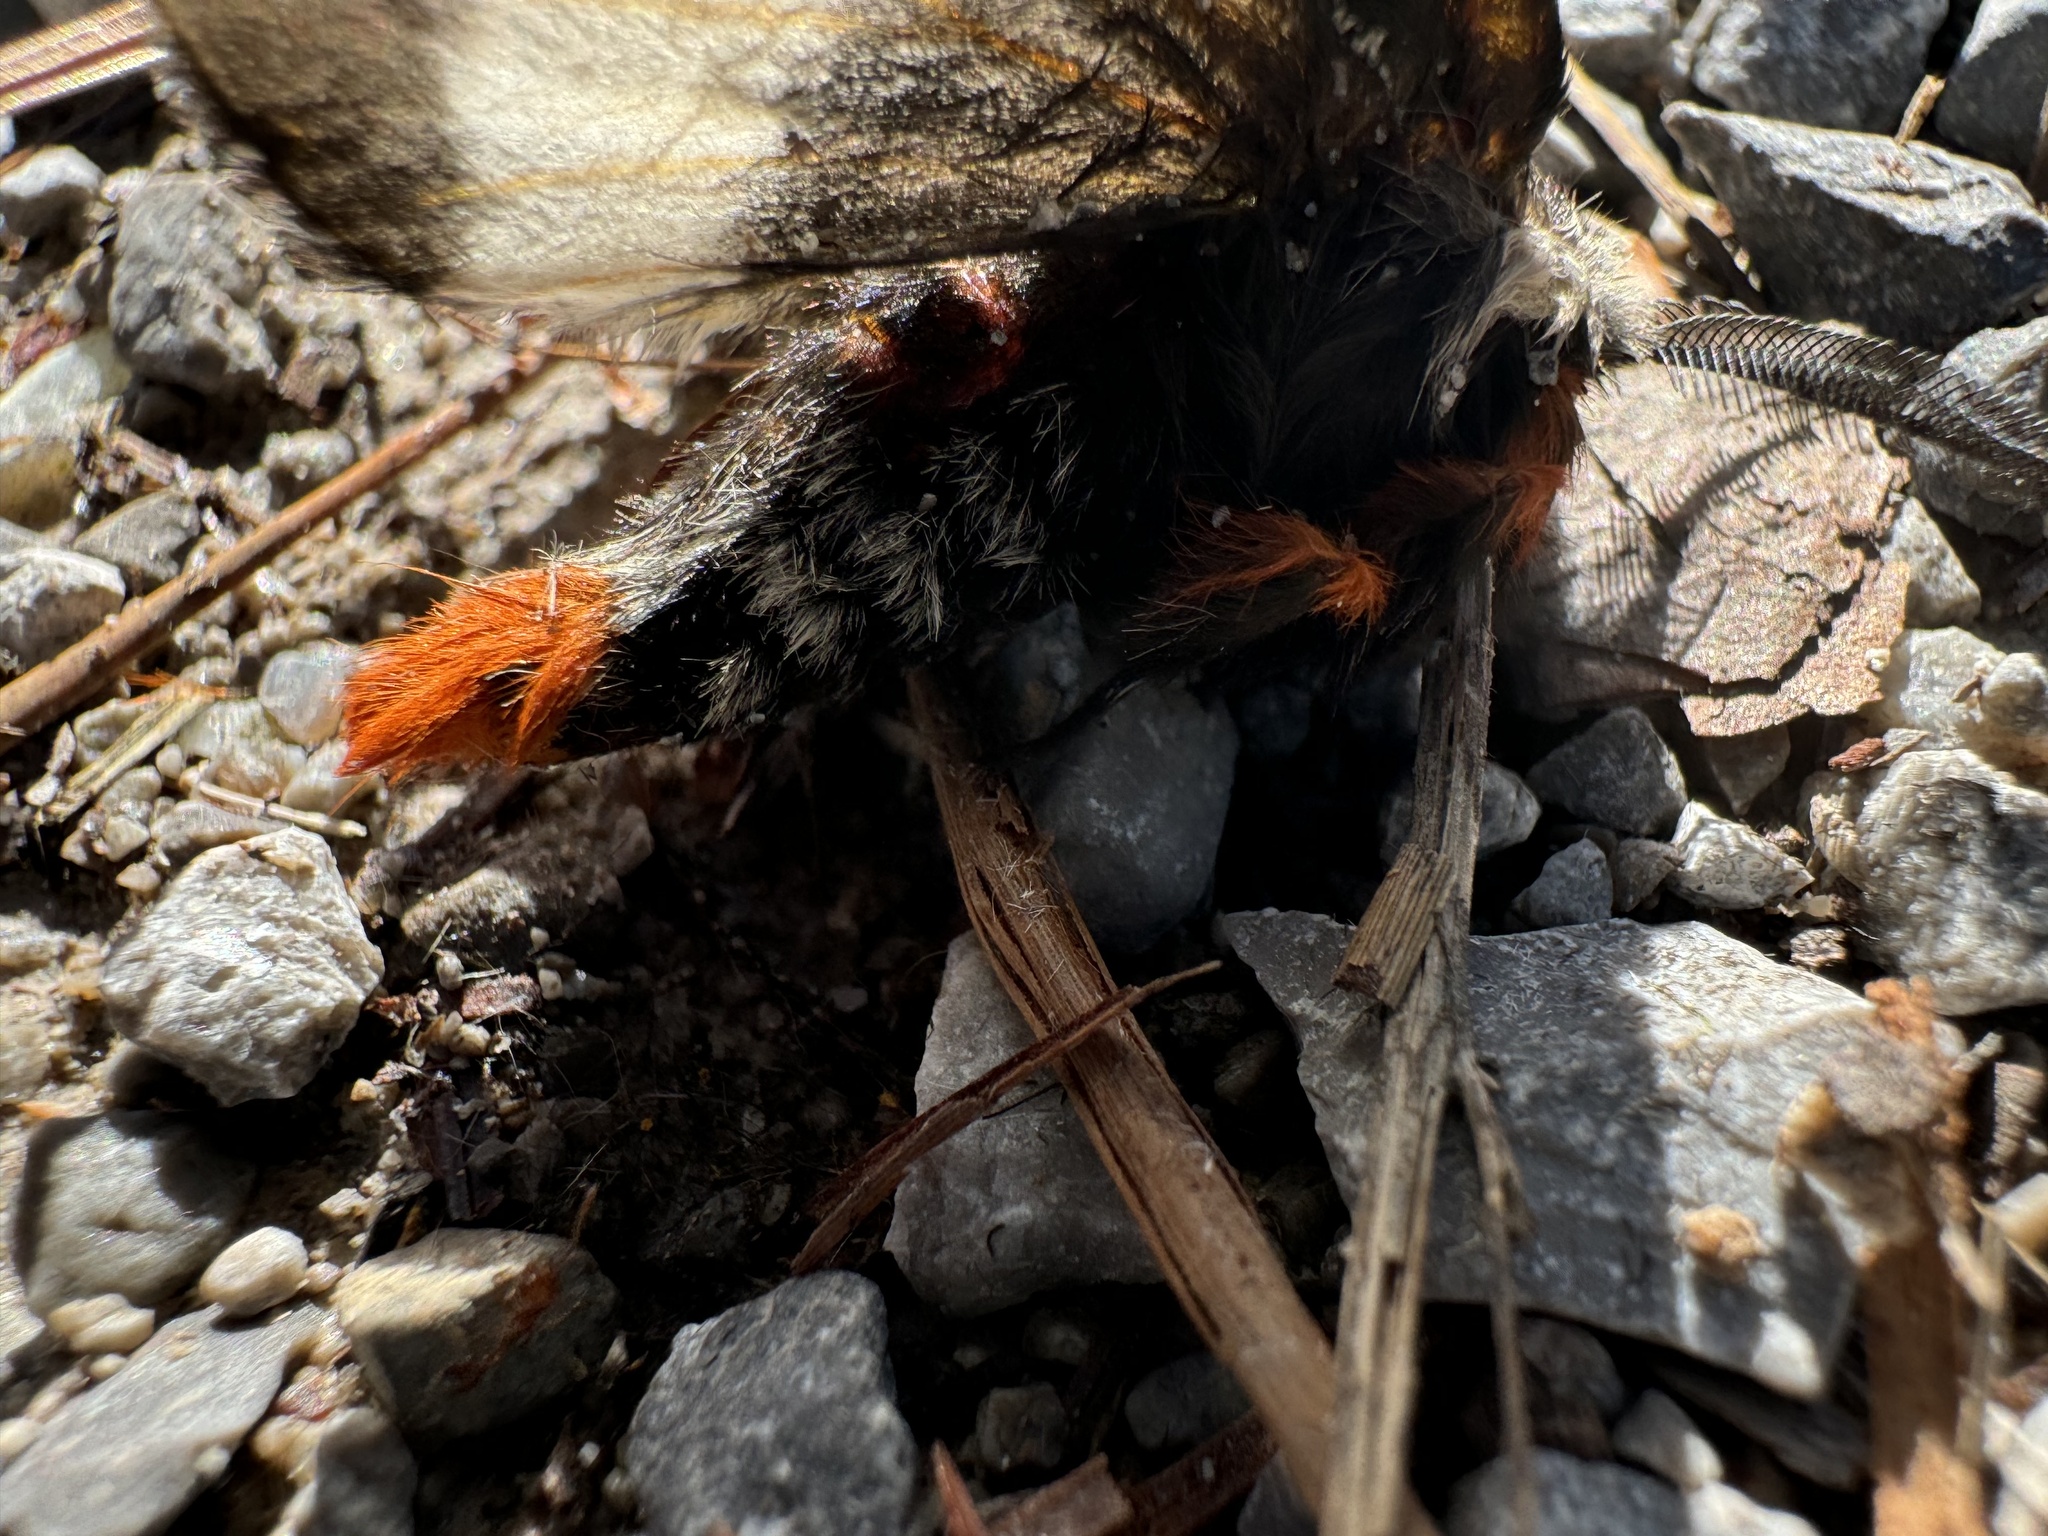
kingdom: Animalia
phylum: Arthropoda
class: Insecta
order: Lepidoptera
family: Saturniidae
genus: Hemileuca
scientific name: Hemileuca maia
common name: Eastern buckmoth
